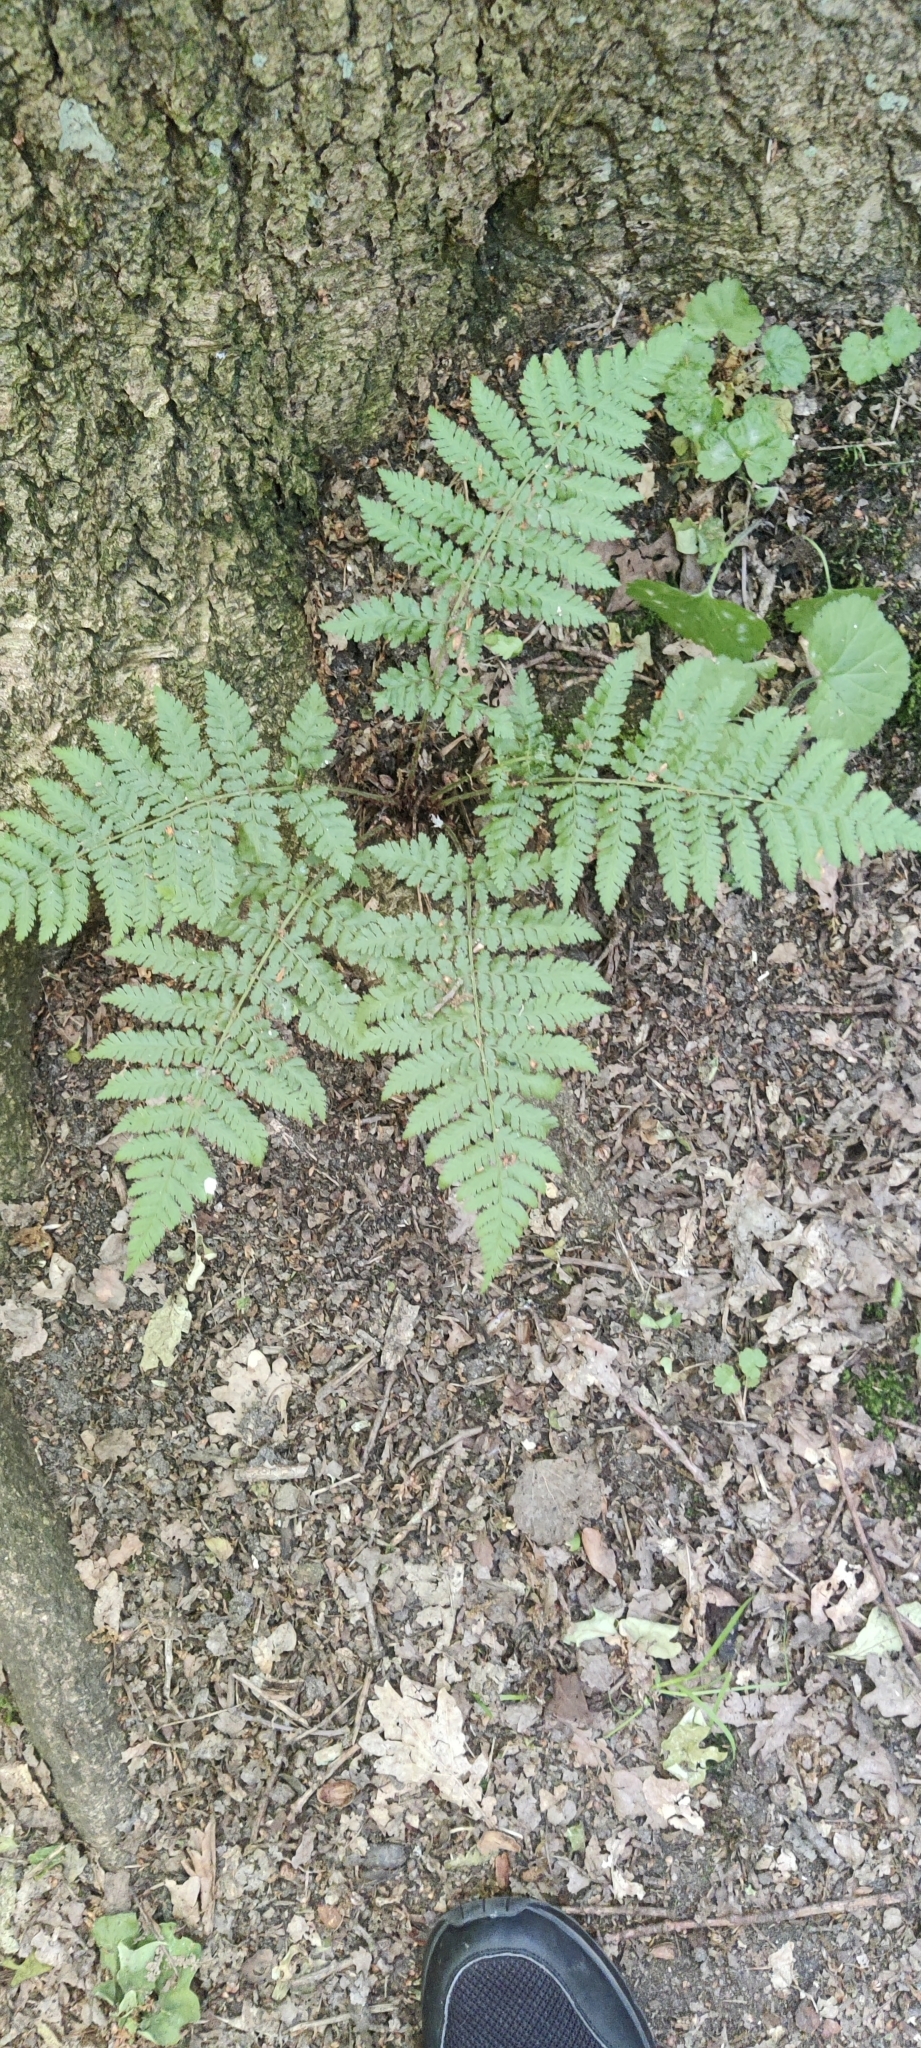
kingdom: Plantae
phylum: Tracheophyta
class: Polypodiopsida
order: Polypodiales
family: Dryopteridaceae
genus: Dryopteris
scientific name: Dryopteris dilatata
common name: Broad buckler-fern
